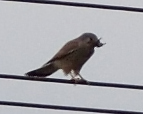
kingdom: Animalia
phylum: Chordata
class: Aves
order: Falconiformes
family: Falconidae
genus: Falco
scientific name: Falco tinnunculus
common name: Common kestrel
